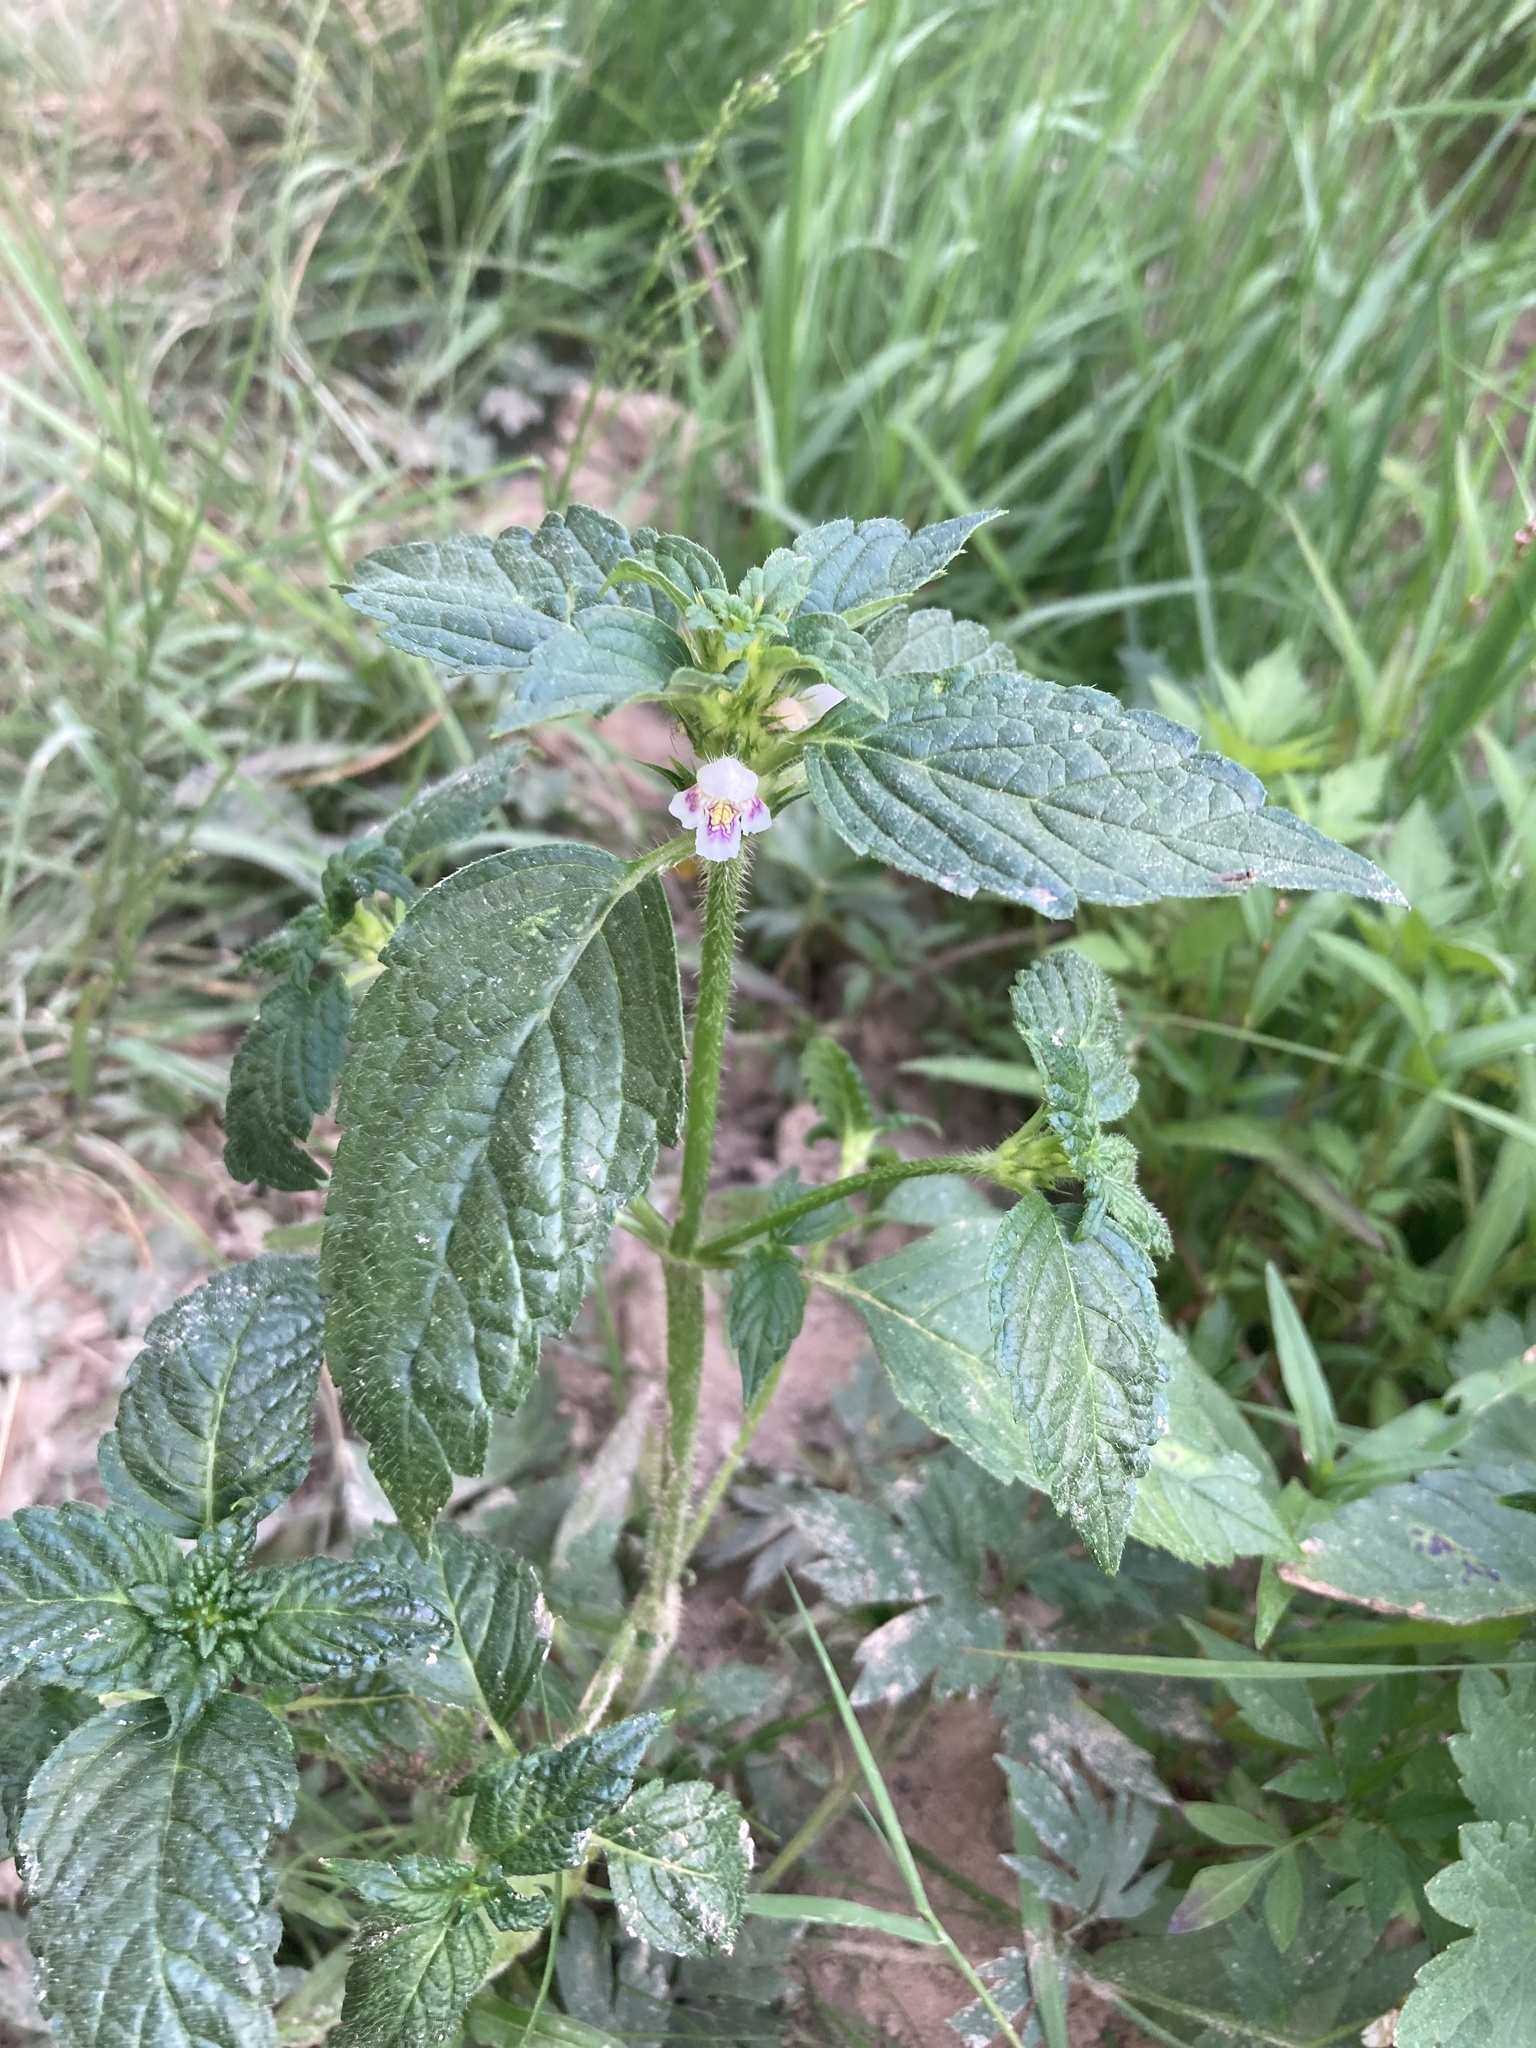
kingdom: Plantae
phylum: Tracheophyta
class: Magnoliopsida
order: Lamiales
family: Lamiaceae
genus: Galeopsis
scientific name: Galeopsis tetrahit
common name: Common hemp-nettle
